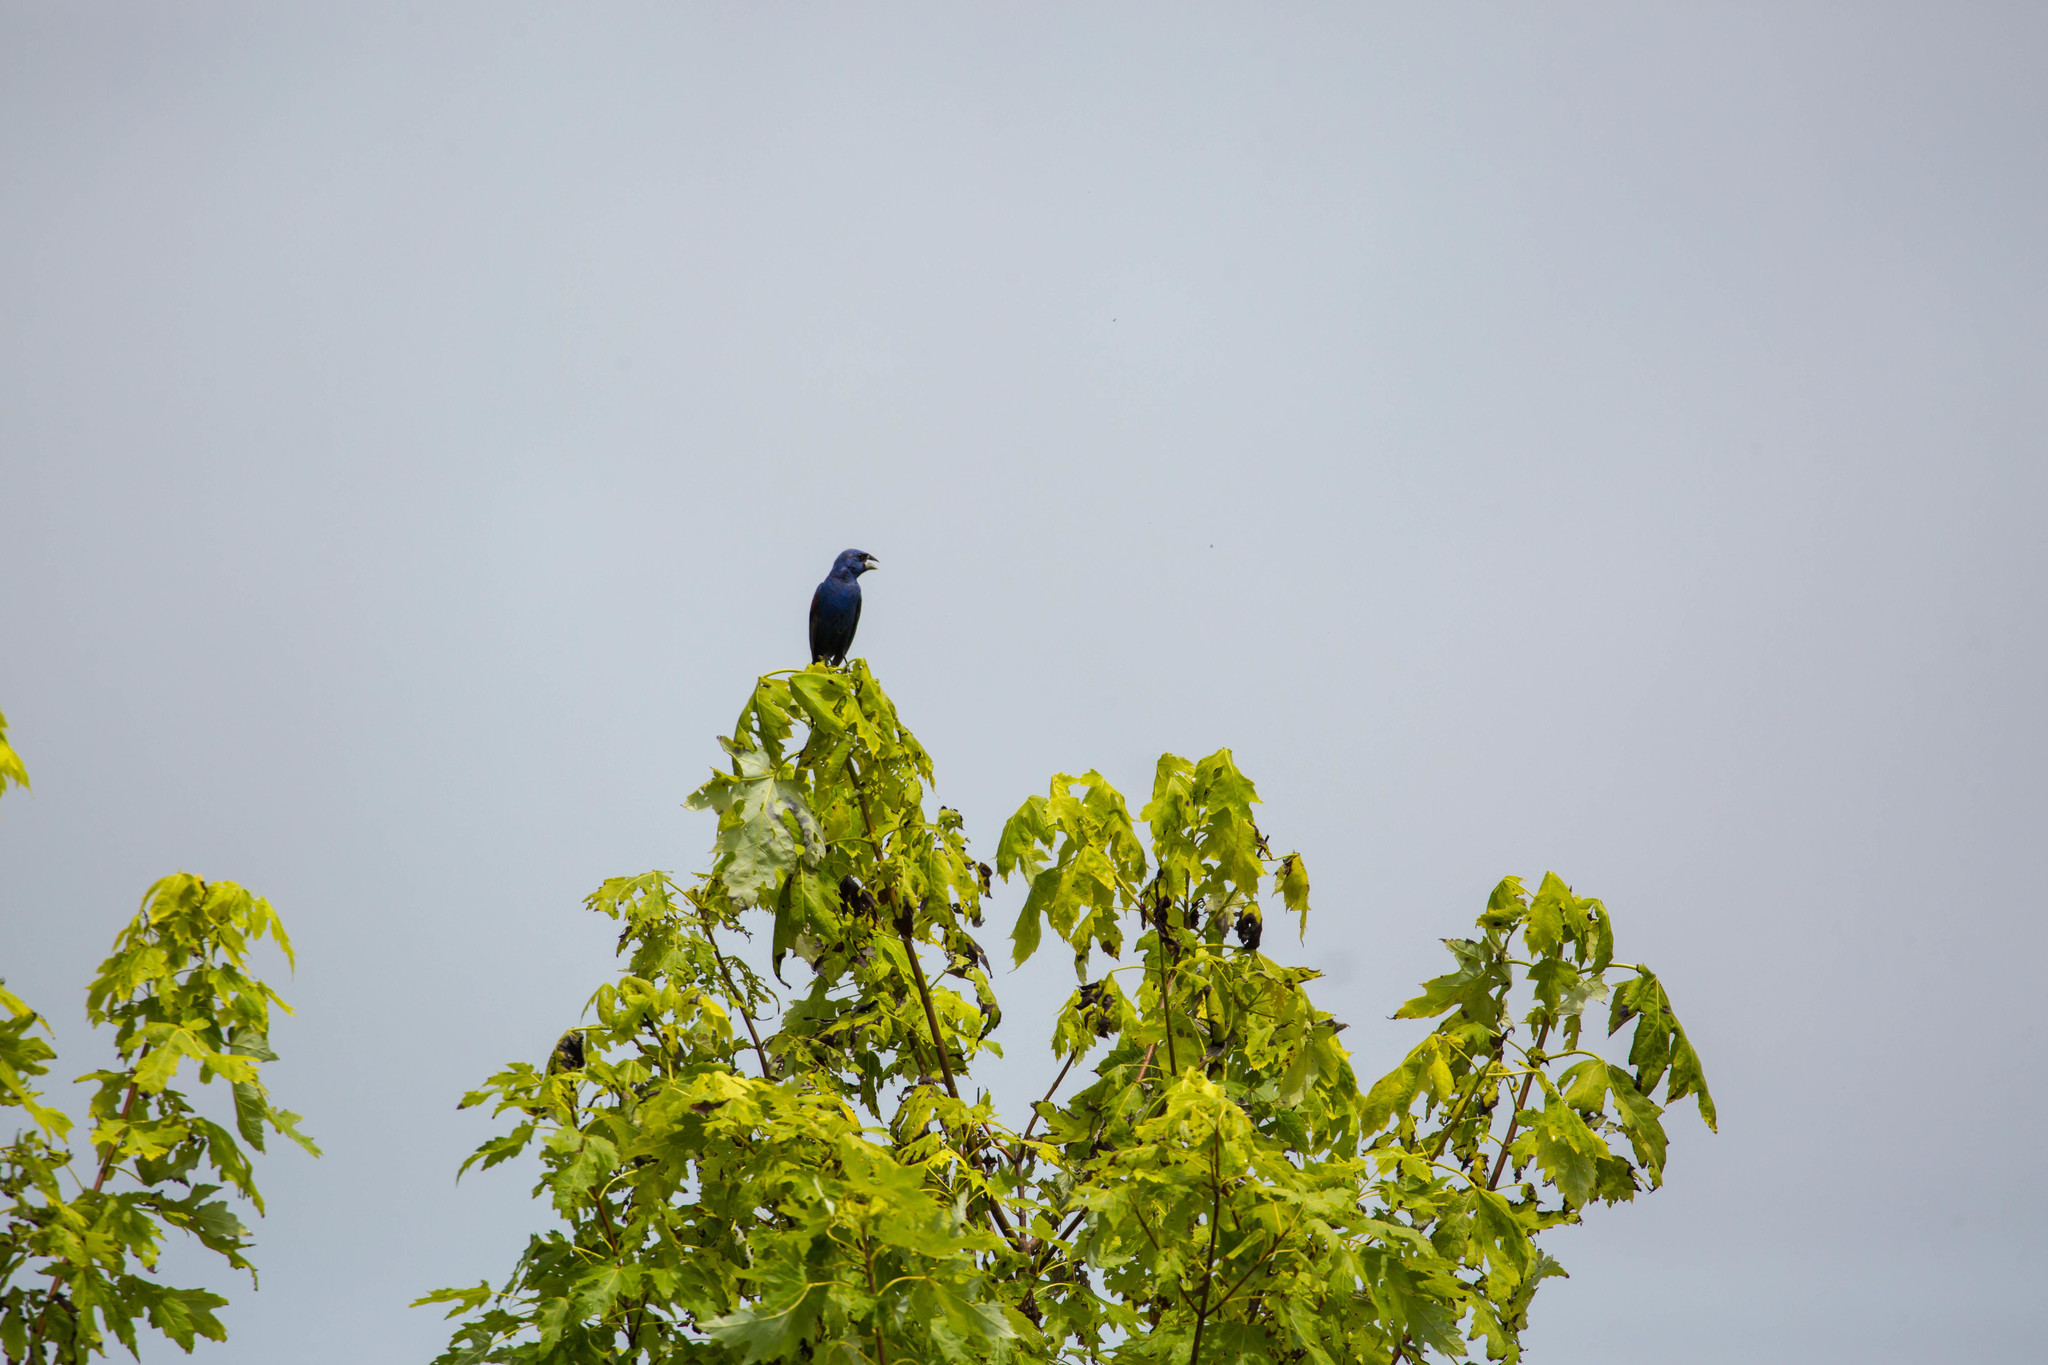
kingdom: Animalia
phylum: Chordata
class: Aves
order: Passeriformes
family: Cardinalidae
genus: Passerina
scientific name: Passerina caerulea
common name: Blue grosbeak
